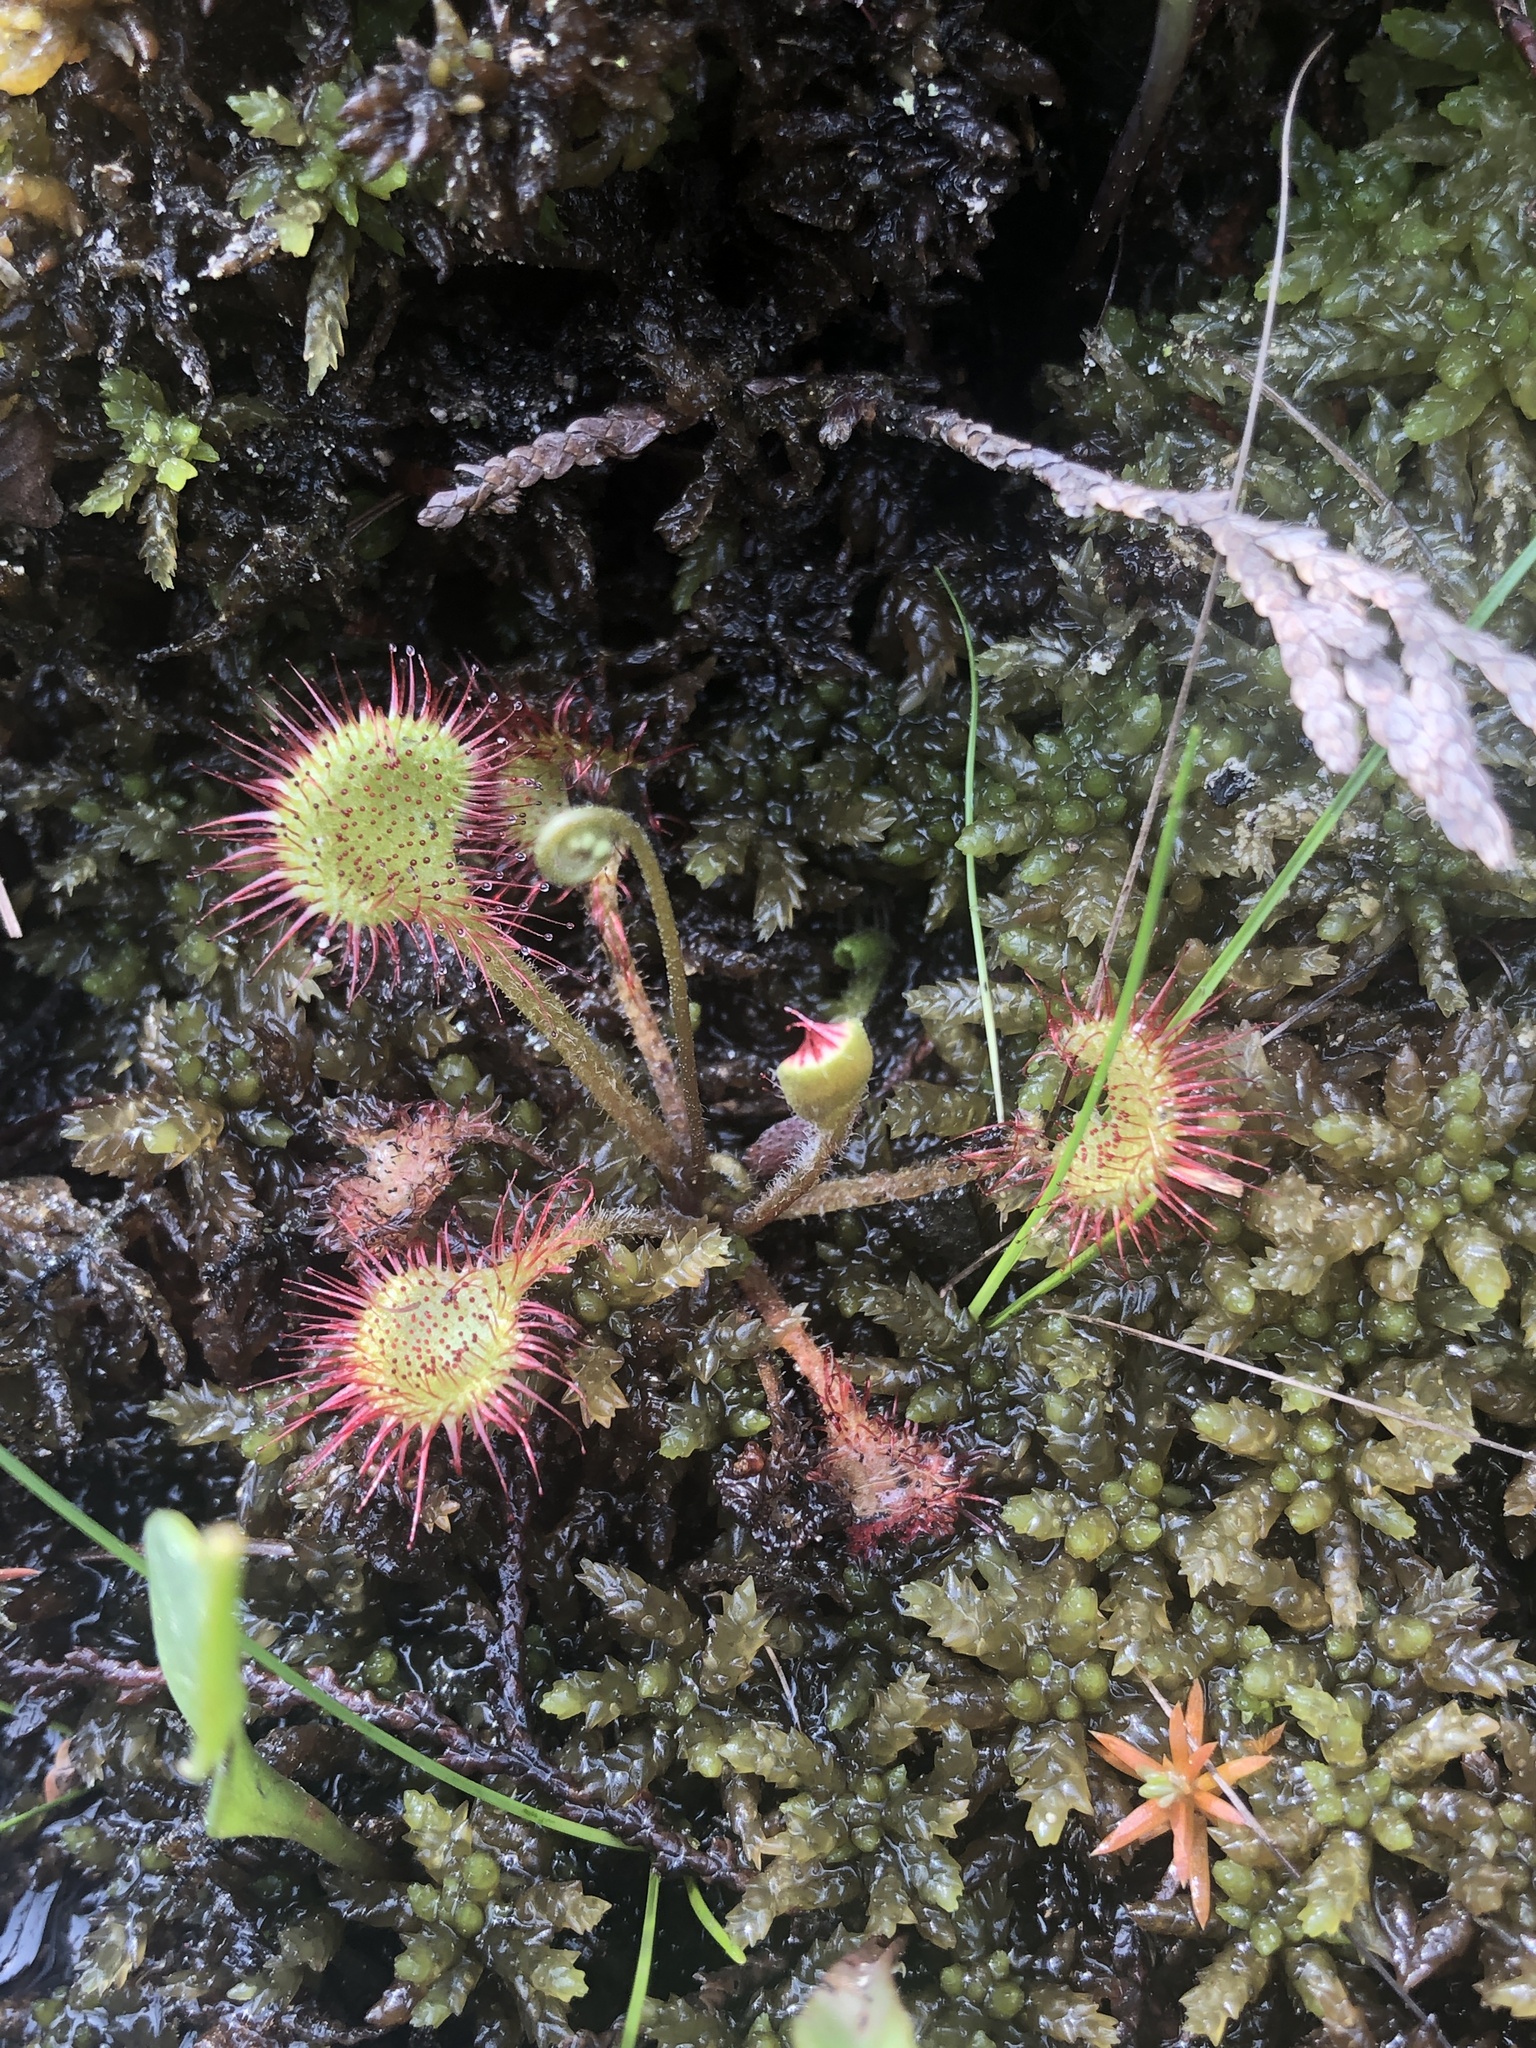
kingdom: Plantae
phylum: Tracheophyta
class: Magnoliopsida
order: Caryophyllales
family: Droseraceae
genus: Drosera
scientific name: Drosera rotundifolia
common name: Round-leaved sundew
